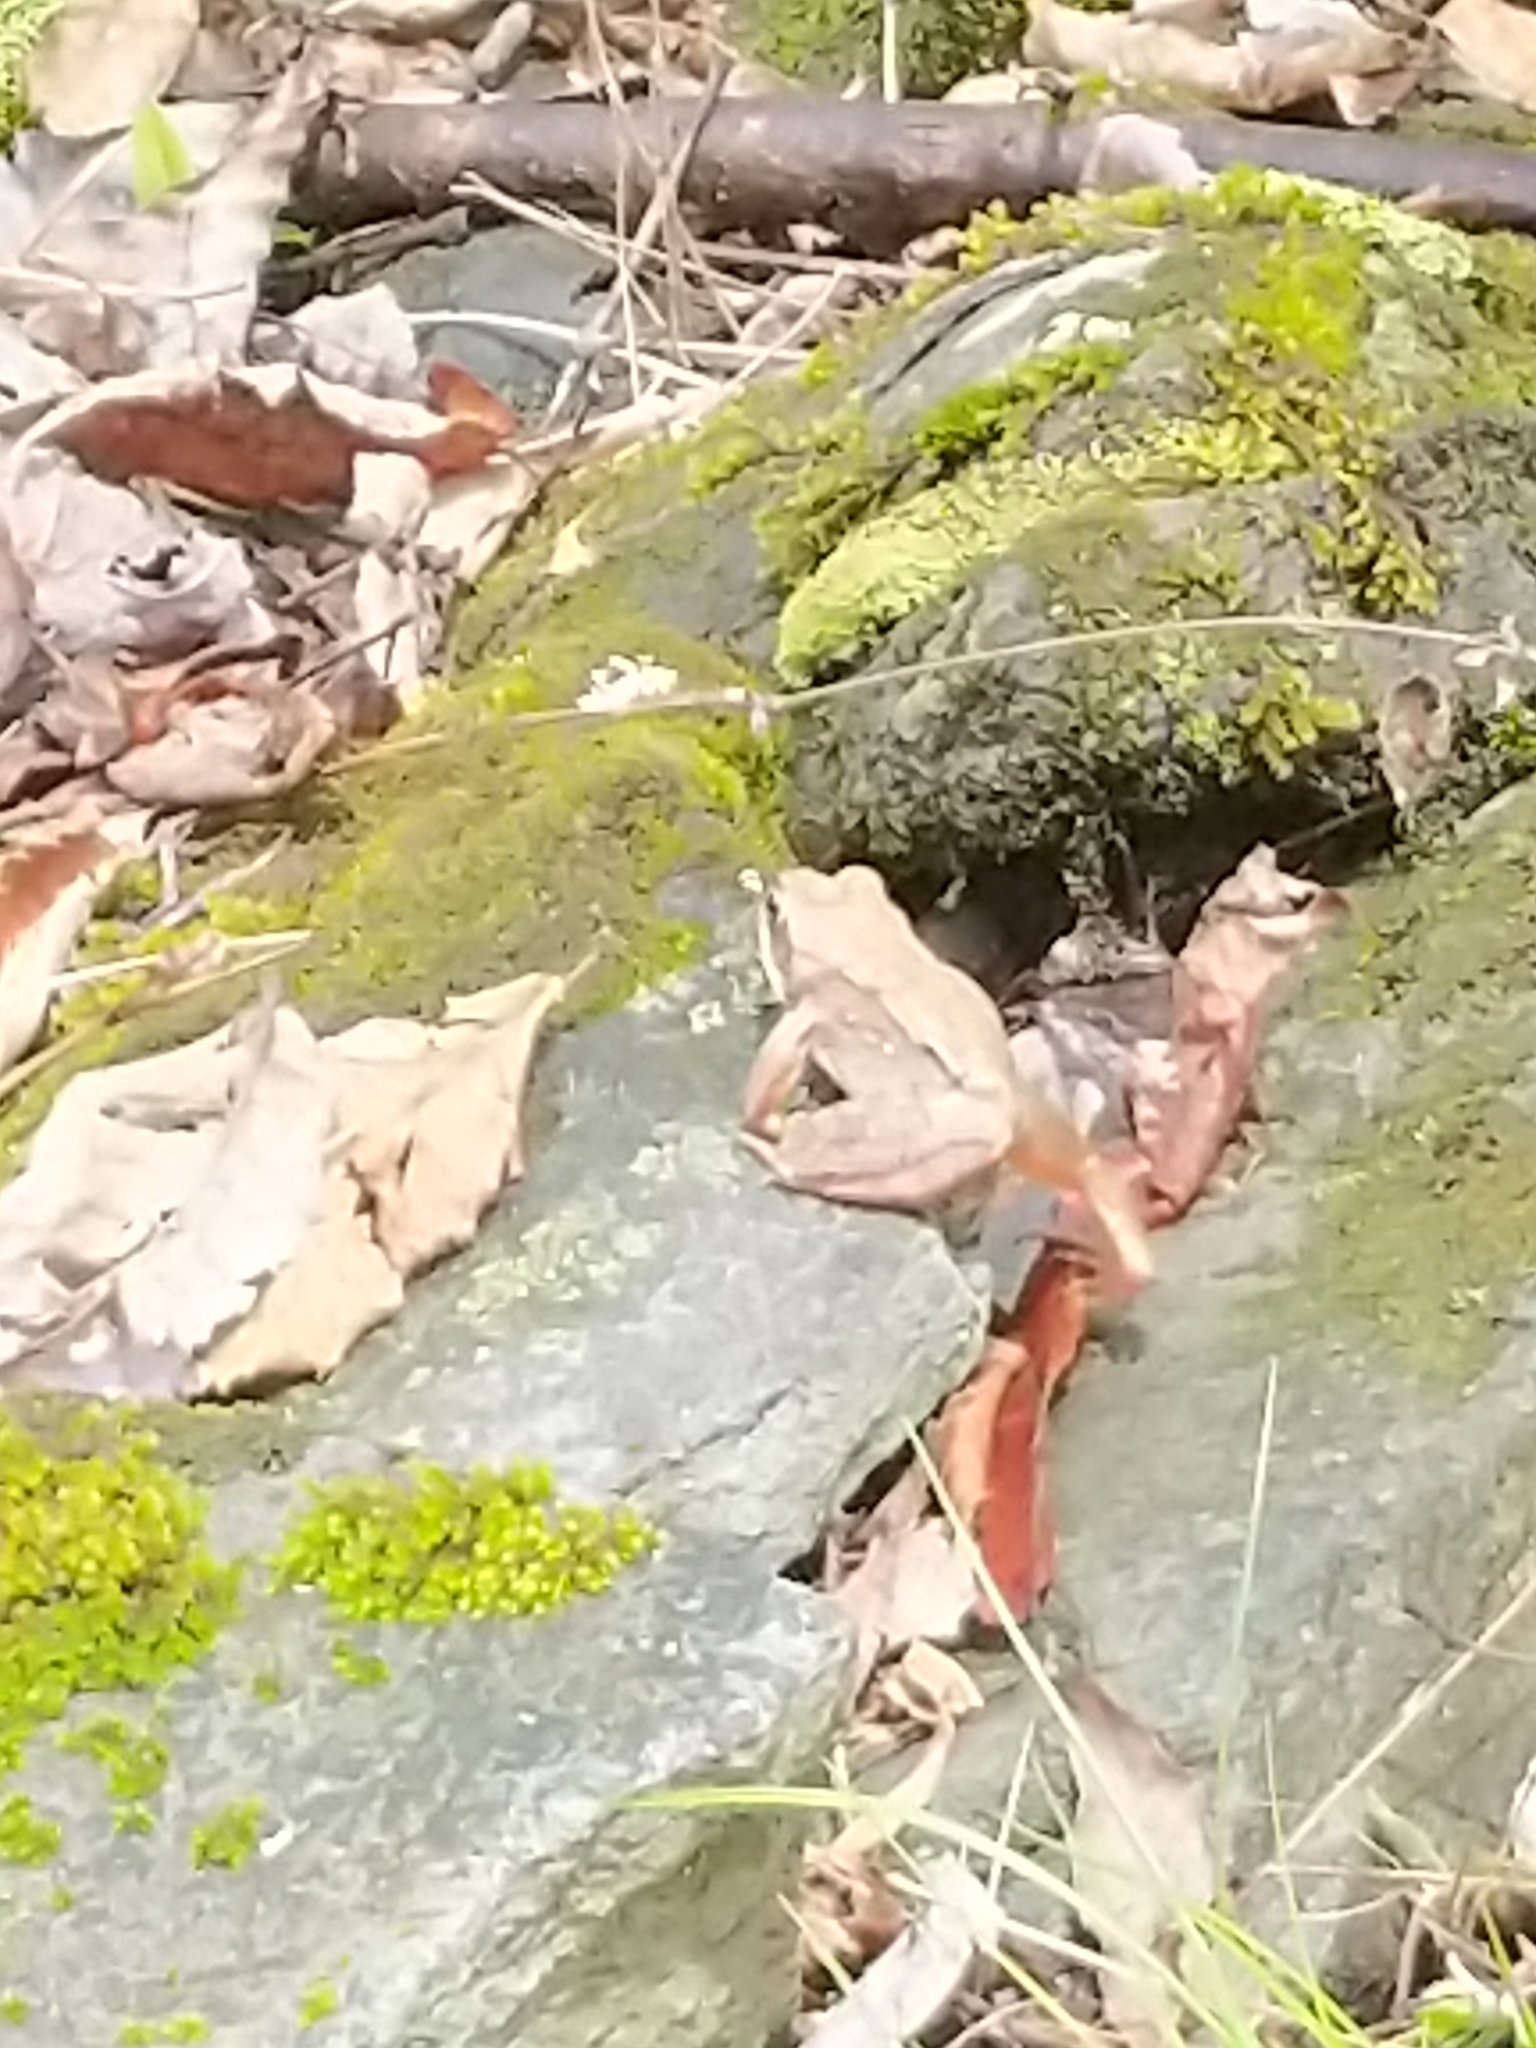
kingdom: Animalia
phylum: Chordata
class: Amphibia
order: Anura
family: Ranidae
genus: Lithobates
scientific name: Lithobates sylvaticus
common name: Wood frog
